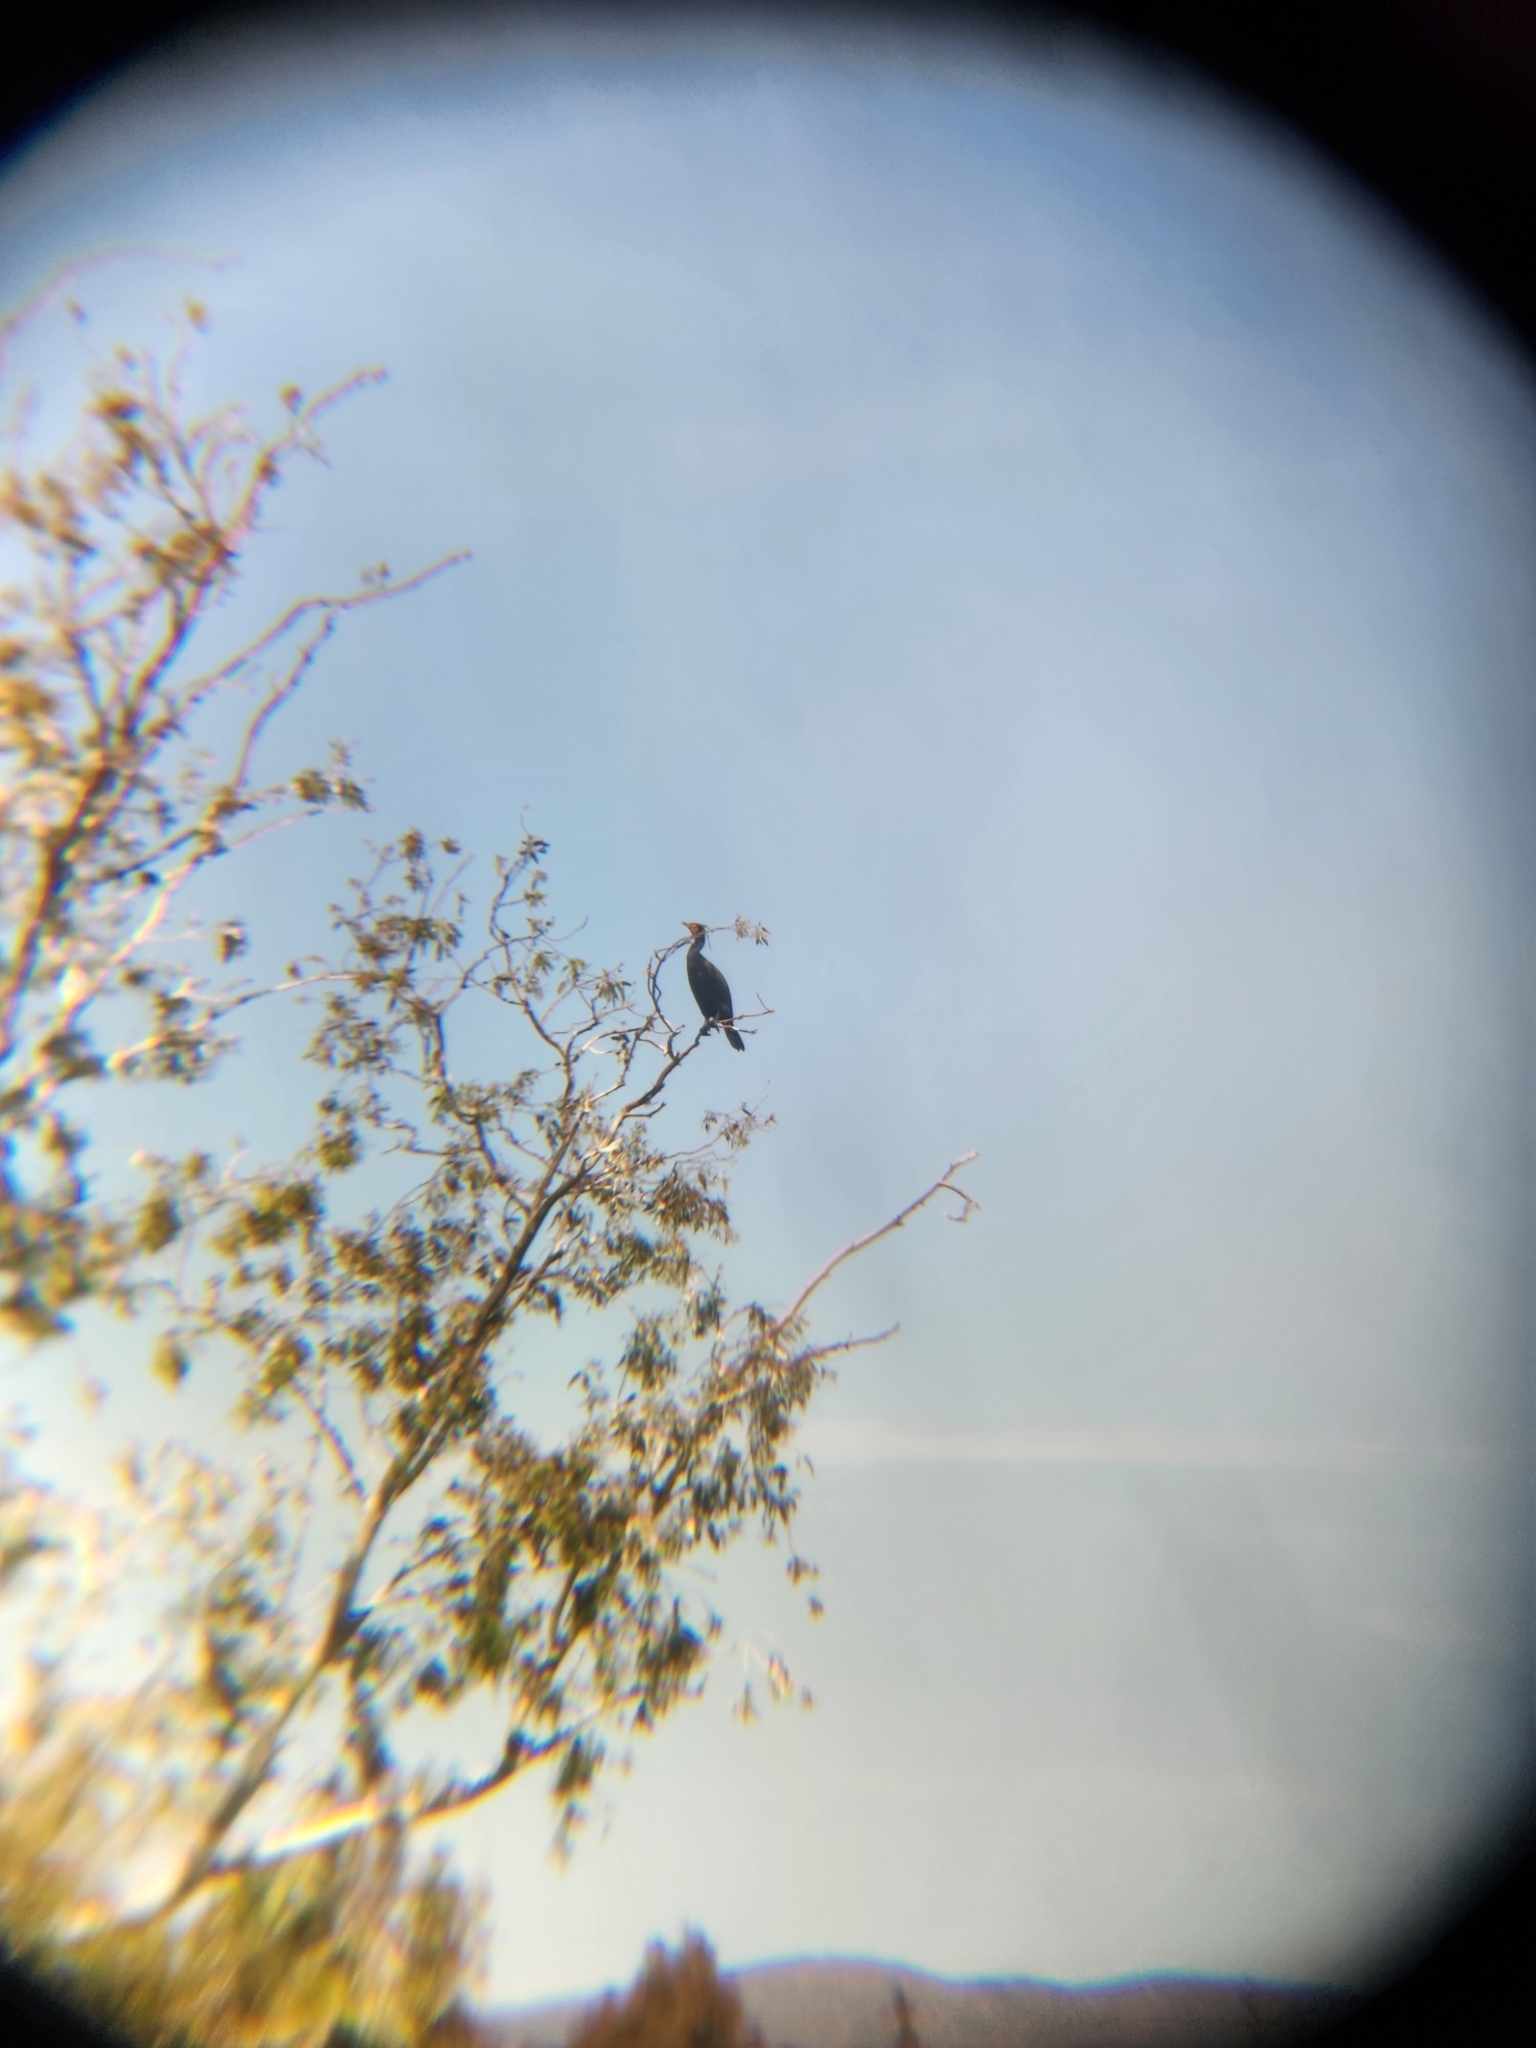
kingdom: Animalia
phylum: Chordata
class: Aves
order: Suliformes
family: Phalacrocoracidae
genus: Phalacrocorax
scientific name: Phalacrocorax auritus
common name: Double-crested cormorant
